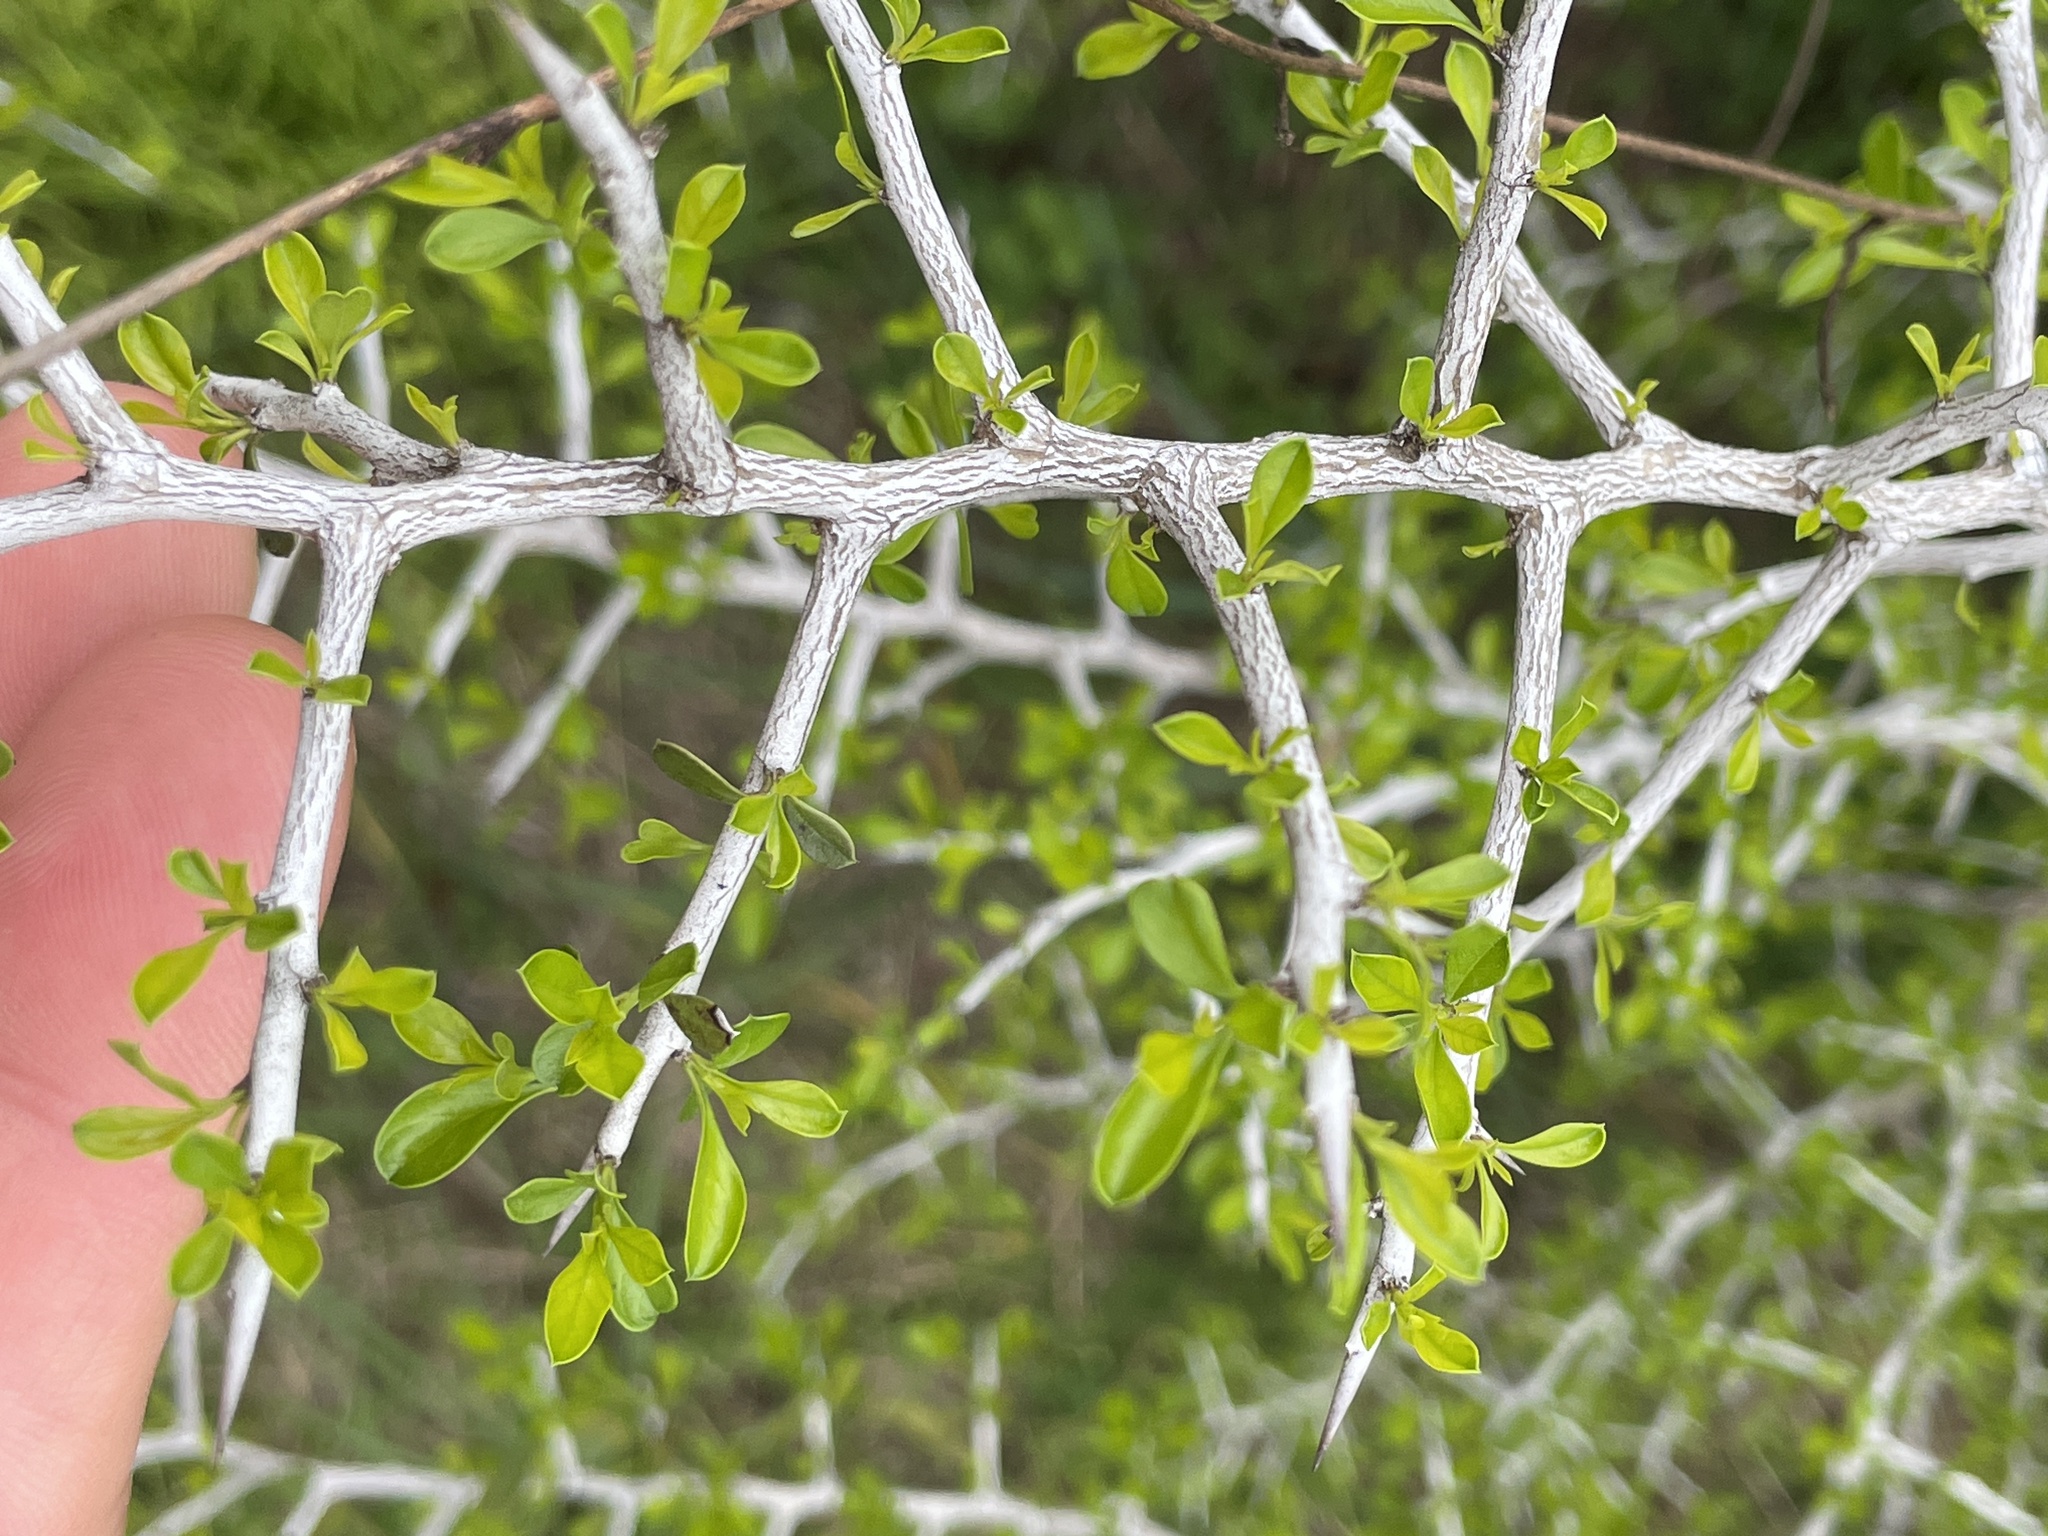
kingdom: Plantae
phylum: Tracheophyta
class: Magnoliopsida
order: Rosales
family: Rhamnaceae
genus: Condalia
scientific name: Condalia hookeri
